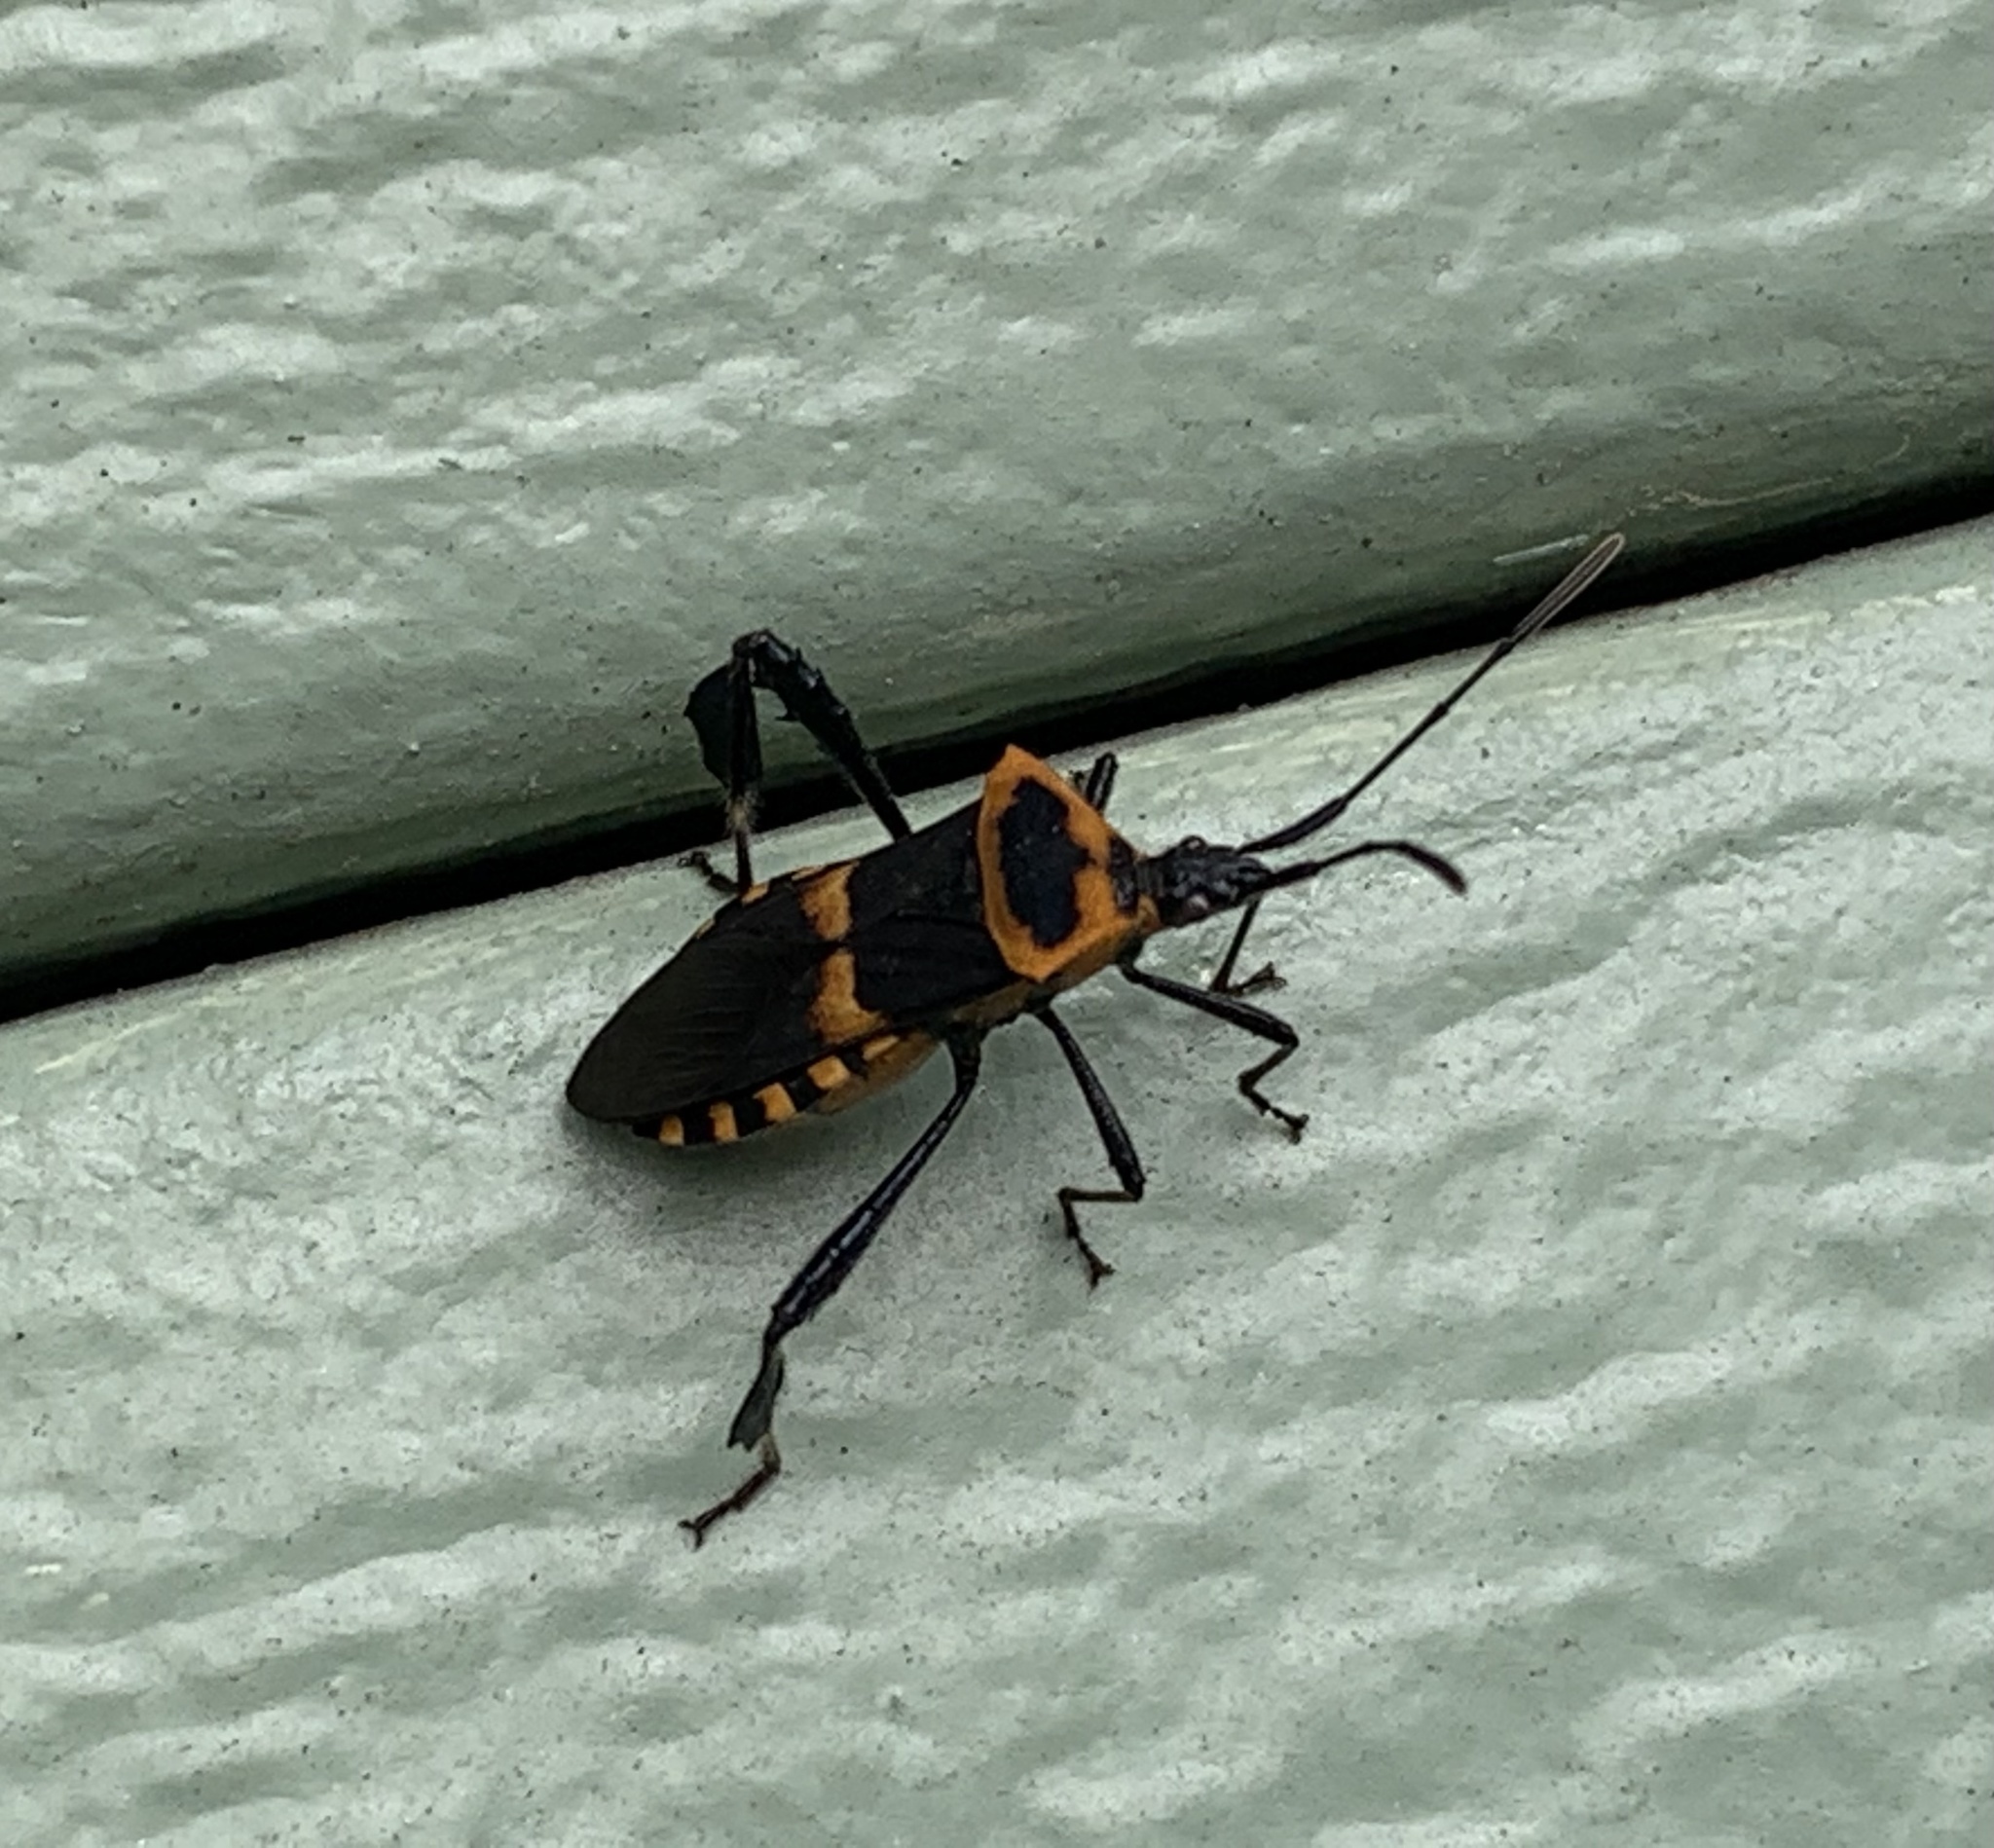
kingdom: Animalia
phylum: Arthropoda
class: Insecta
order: Hemiptera
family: Coreidae
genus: Leptoglossus
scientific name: Leptoglossus ashmeadi
